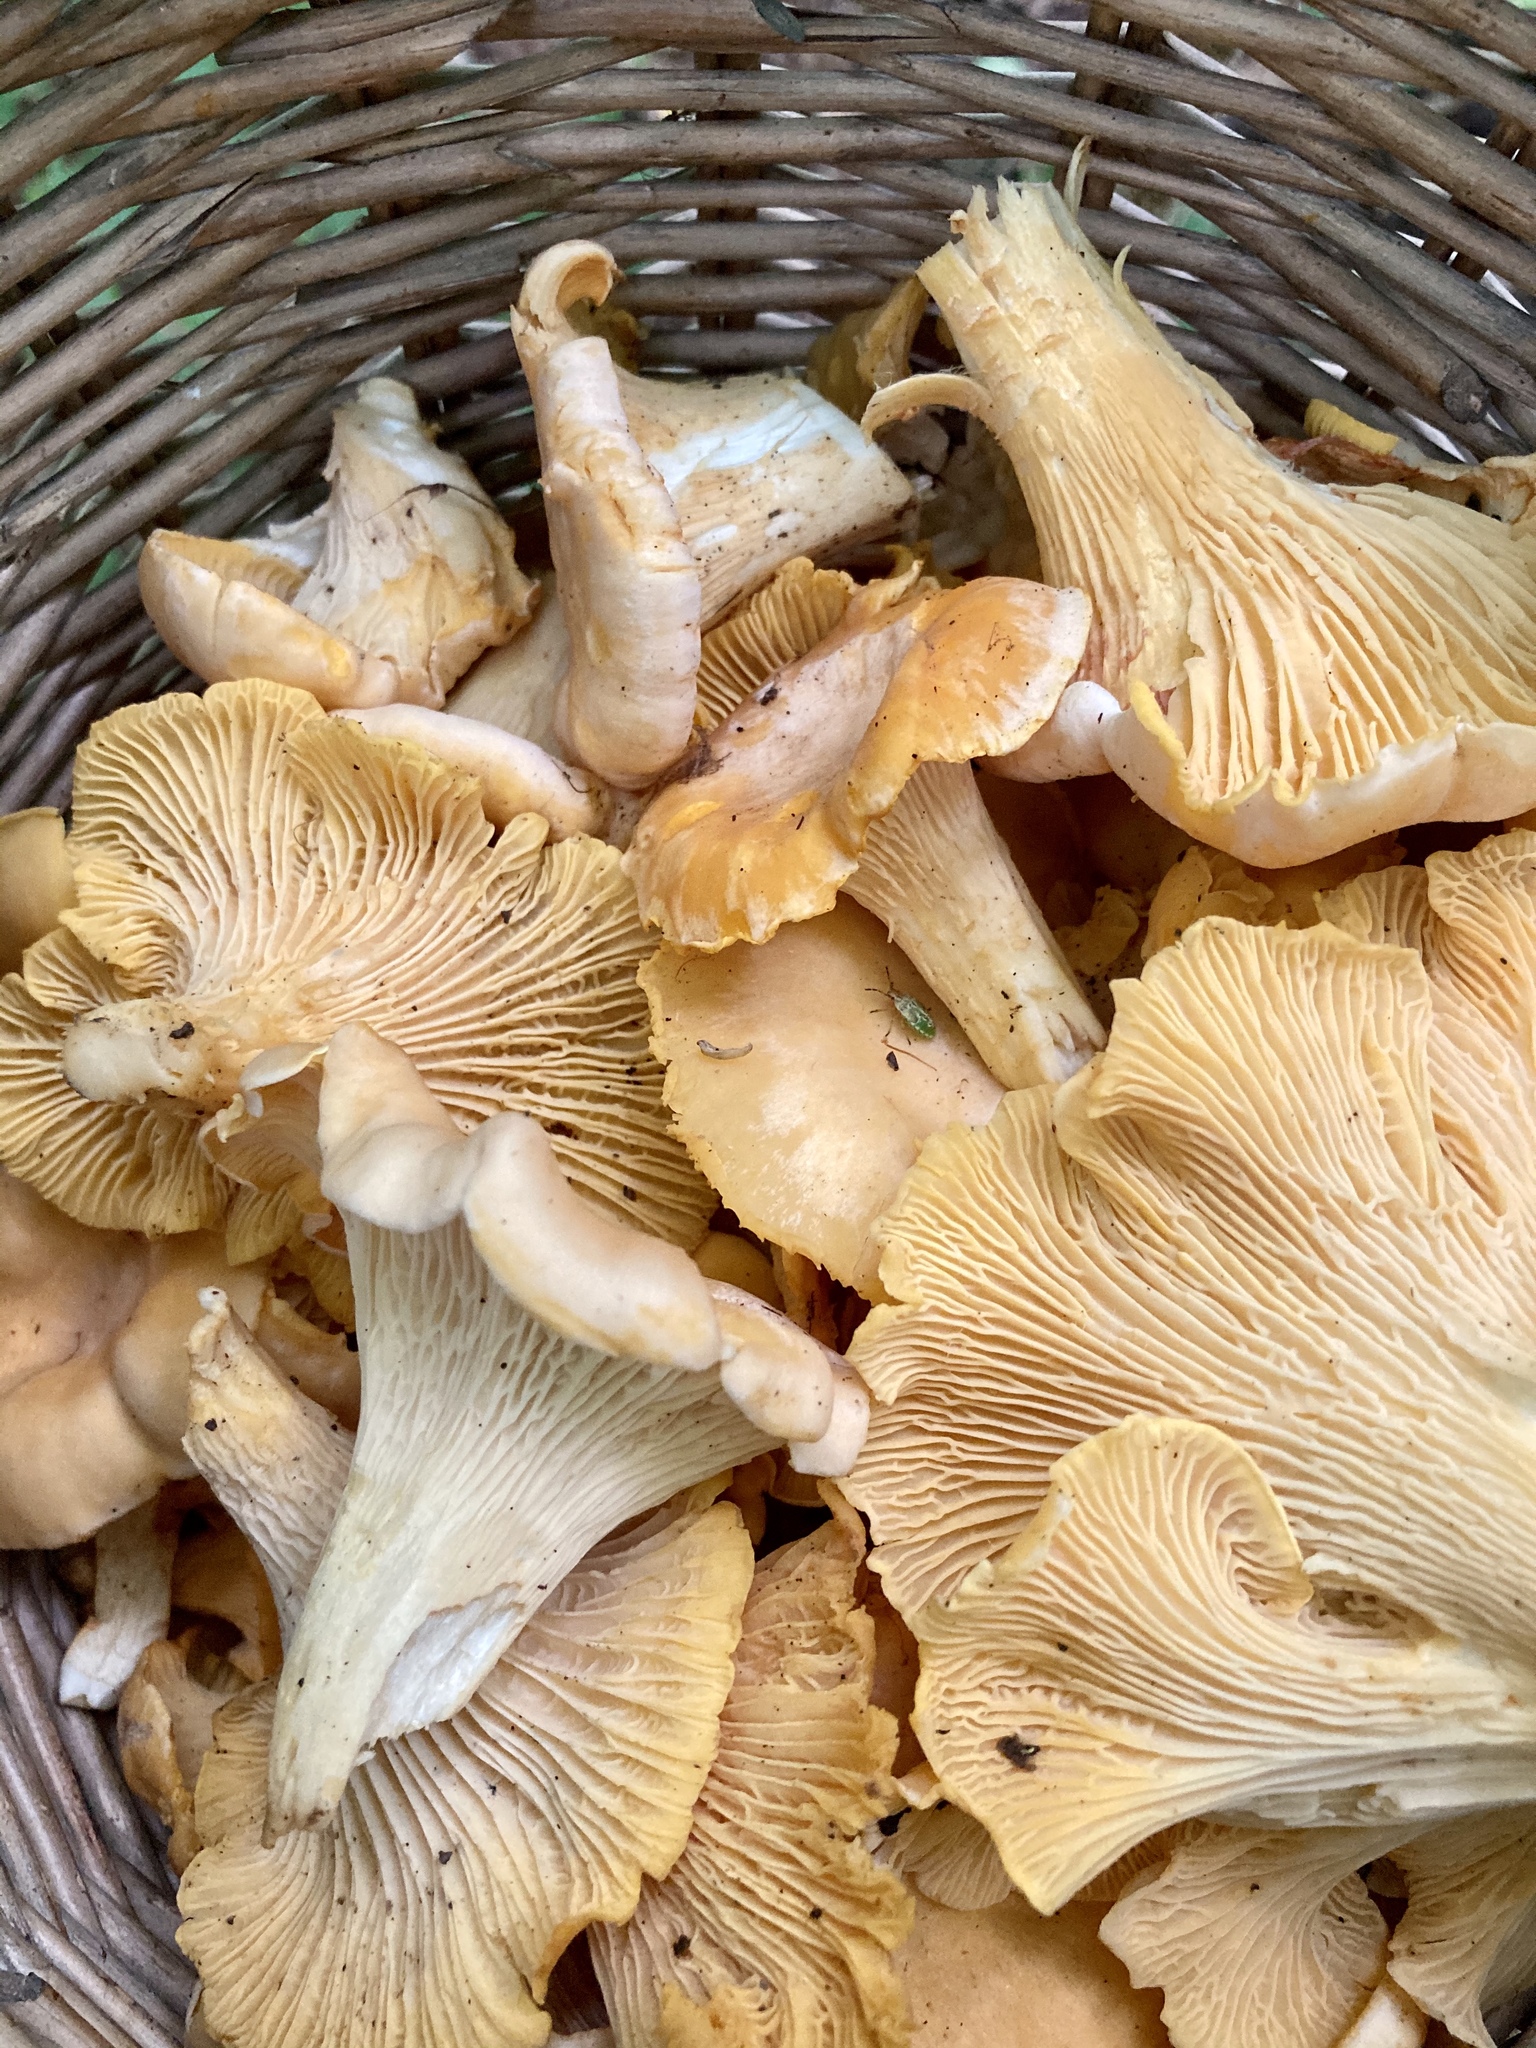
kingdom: Fungi
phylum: Basidiomycota
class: Agaricomycetes
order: Cantharellales
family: Hydnaceae
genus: Cantharellus
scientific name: Cantharellus cibarius
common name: Chanterelle
